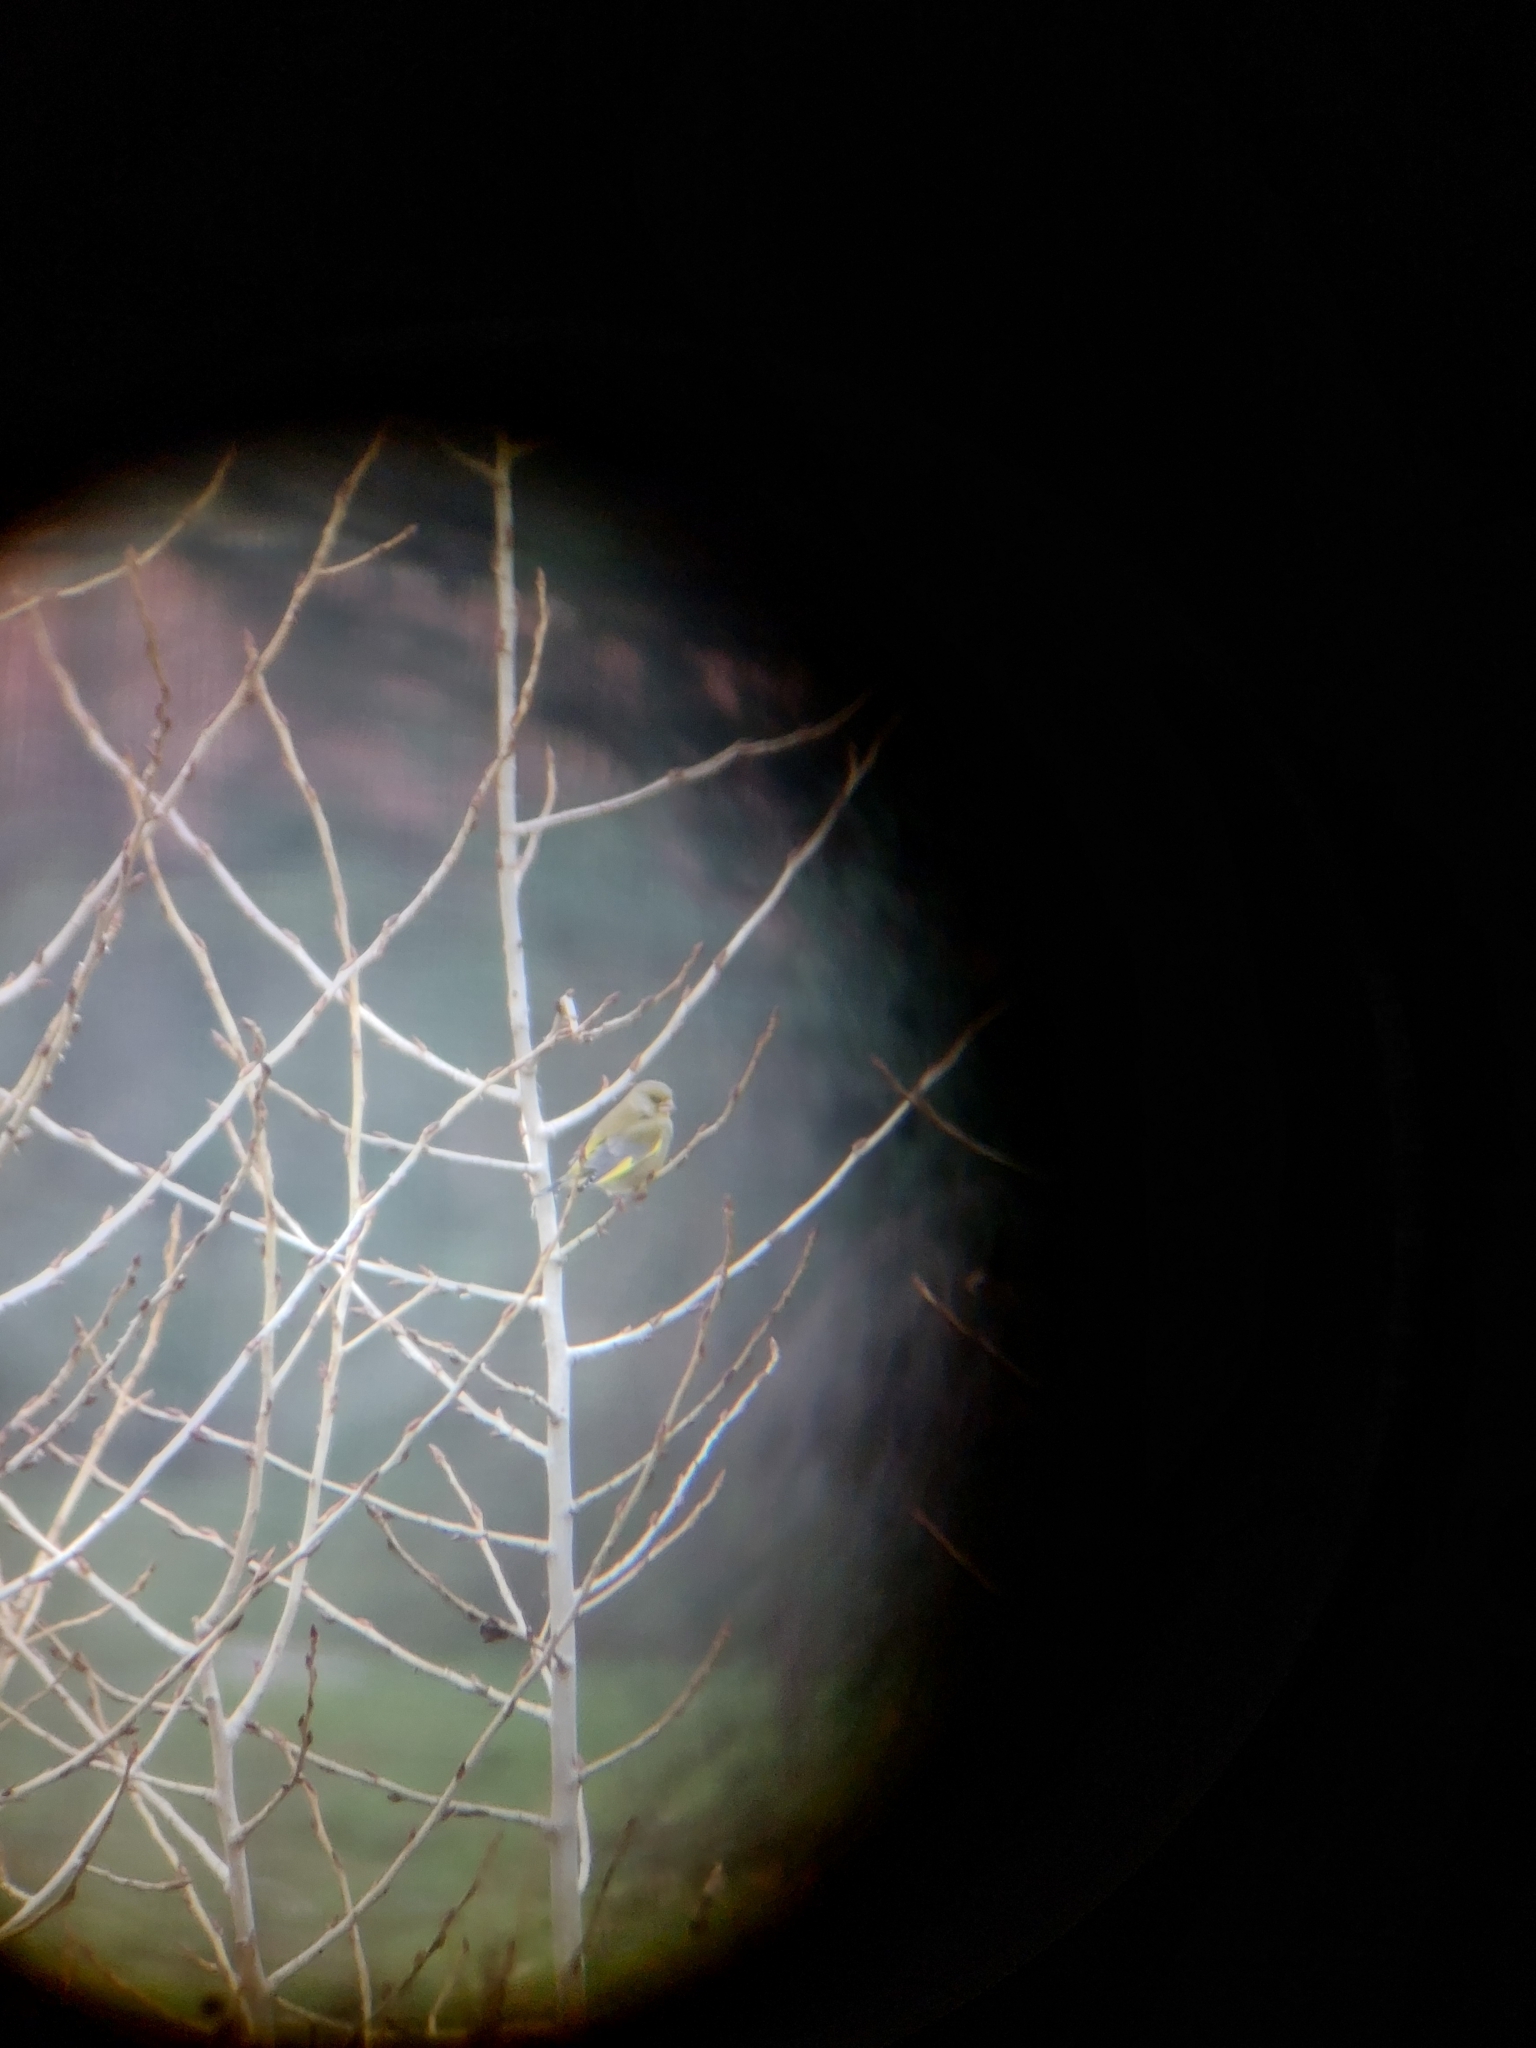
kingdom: Plantae
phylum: Tracheophyta
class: Liliopsida
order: Poales
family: Poaceae
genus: Chloris
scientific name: Chloris chloris
